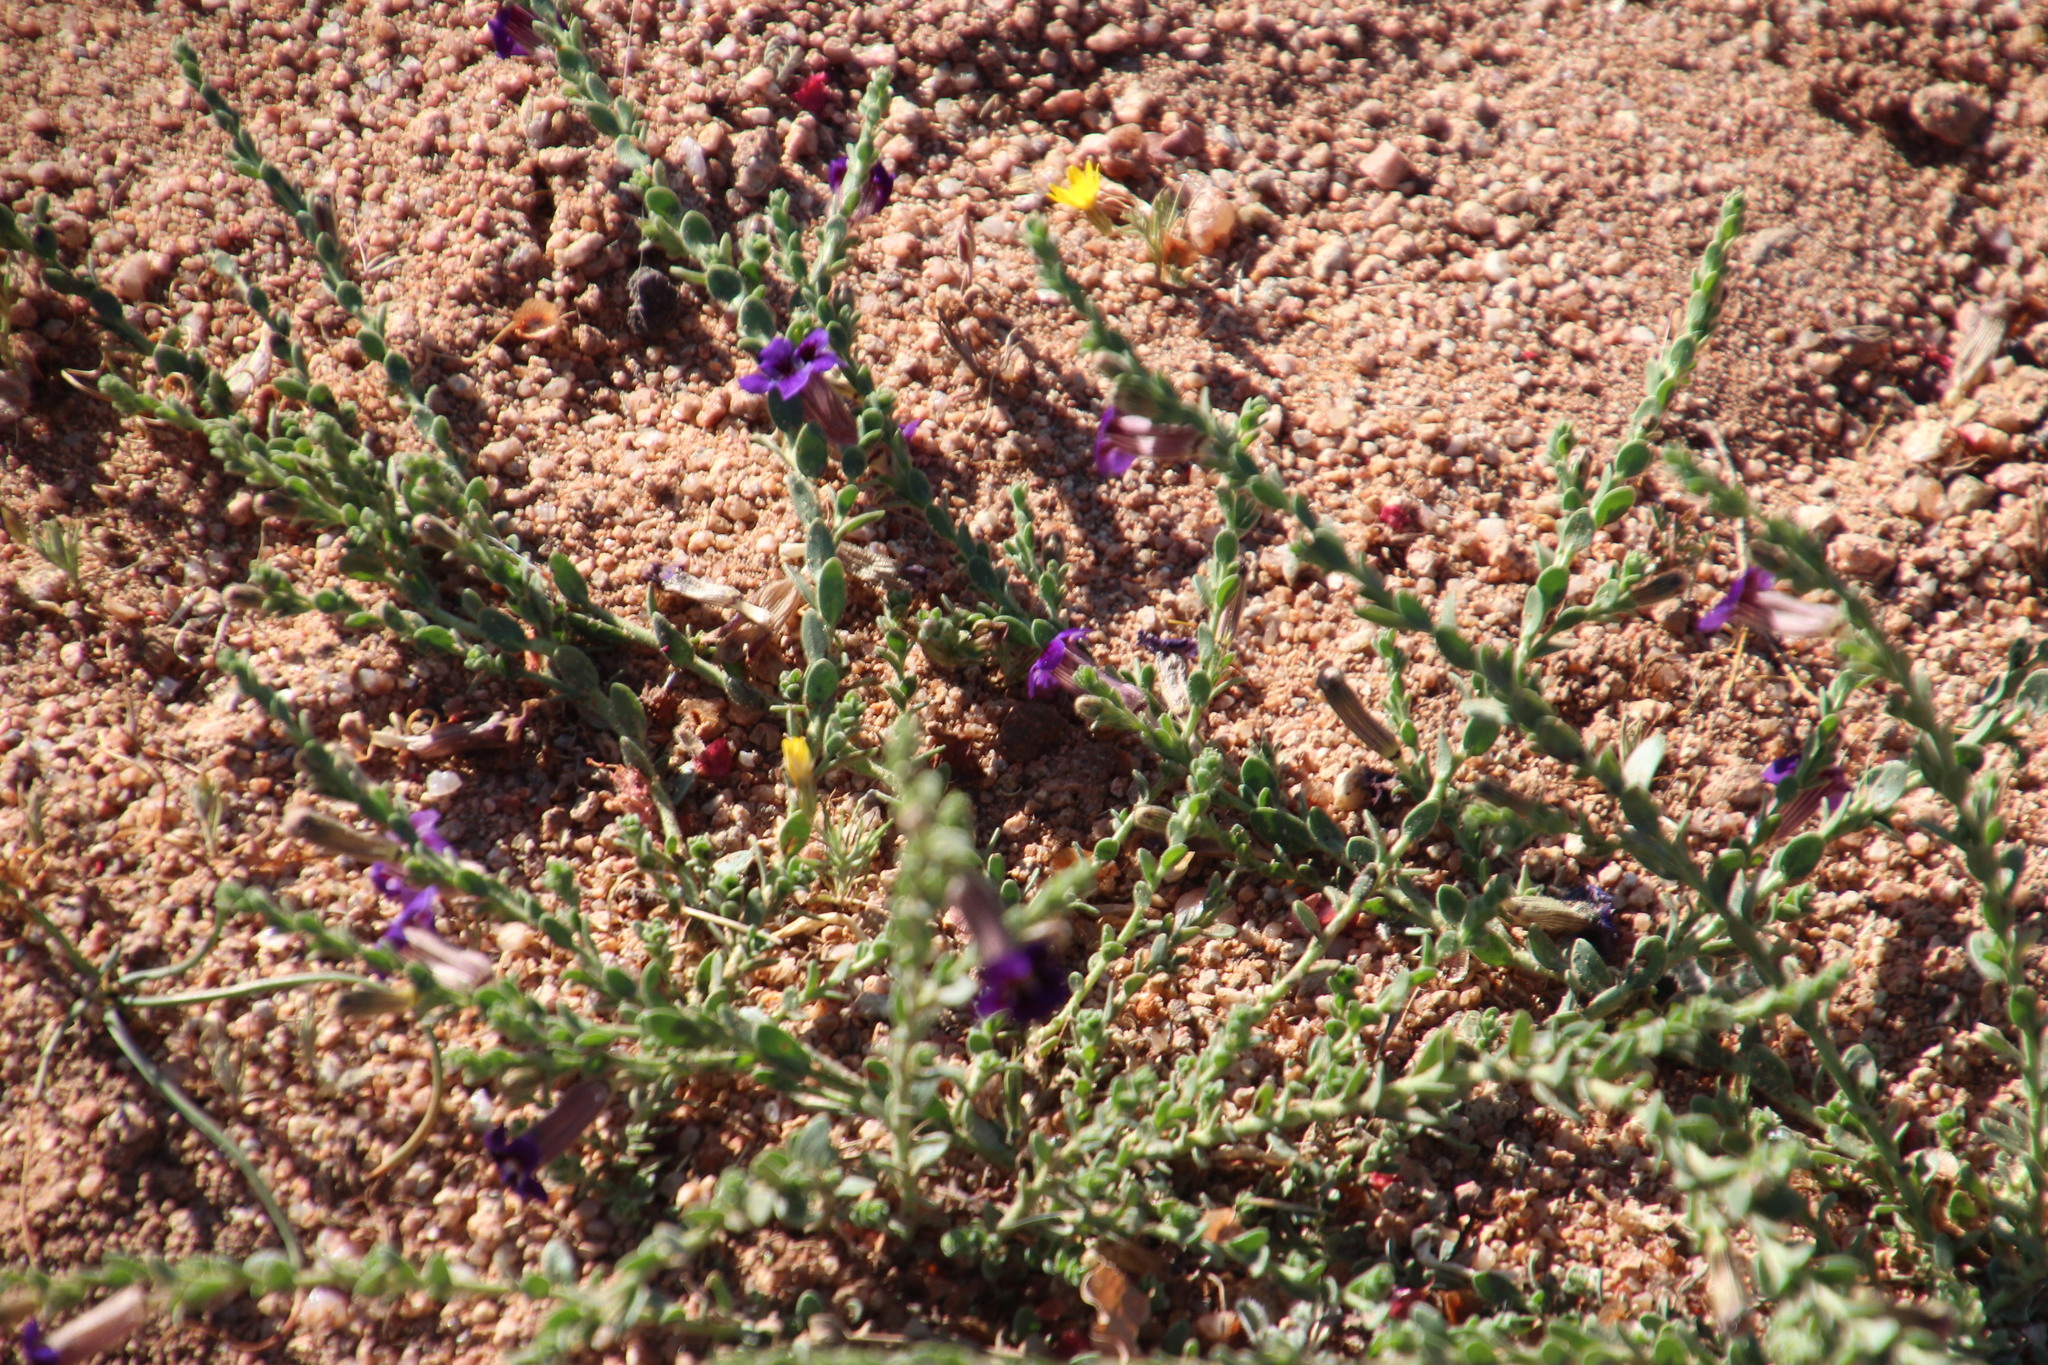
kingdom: Plantae
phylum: Tracheophyta
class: Magnoliopsida
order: Lamiales
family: Scrophulariaceae
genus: Peliostomum
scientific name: Peliostomum virgatum
